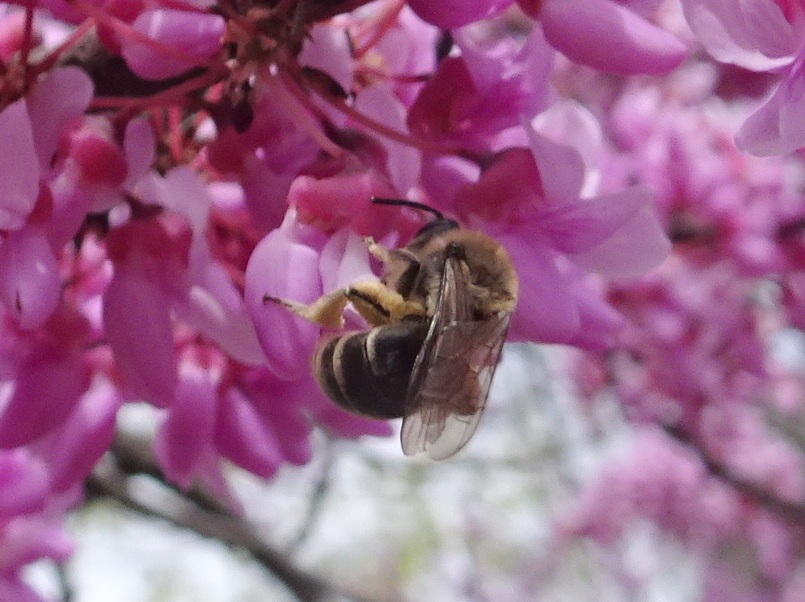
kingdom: Animalia
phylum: Arthropoda
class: Insecta
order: Hymenoptera
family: Colletidae
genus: Colletes
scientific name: Colletes inaequalis
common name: Unequal cellophane bee
